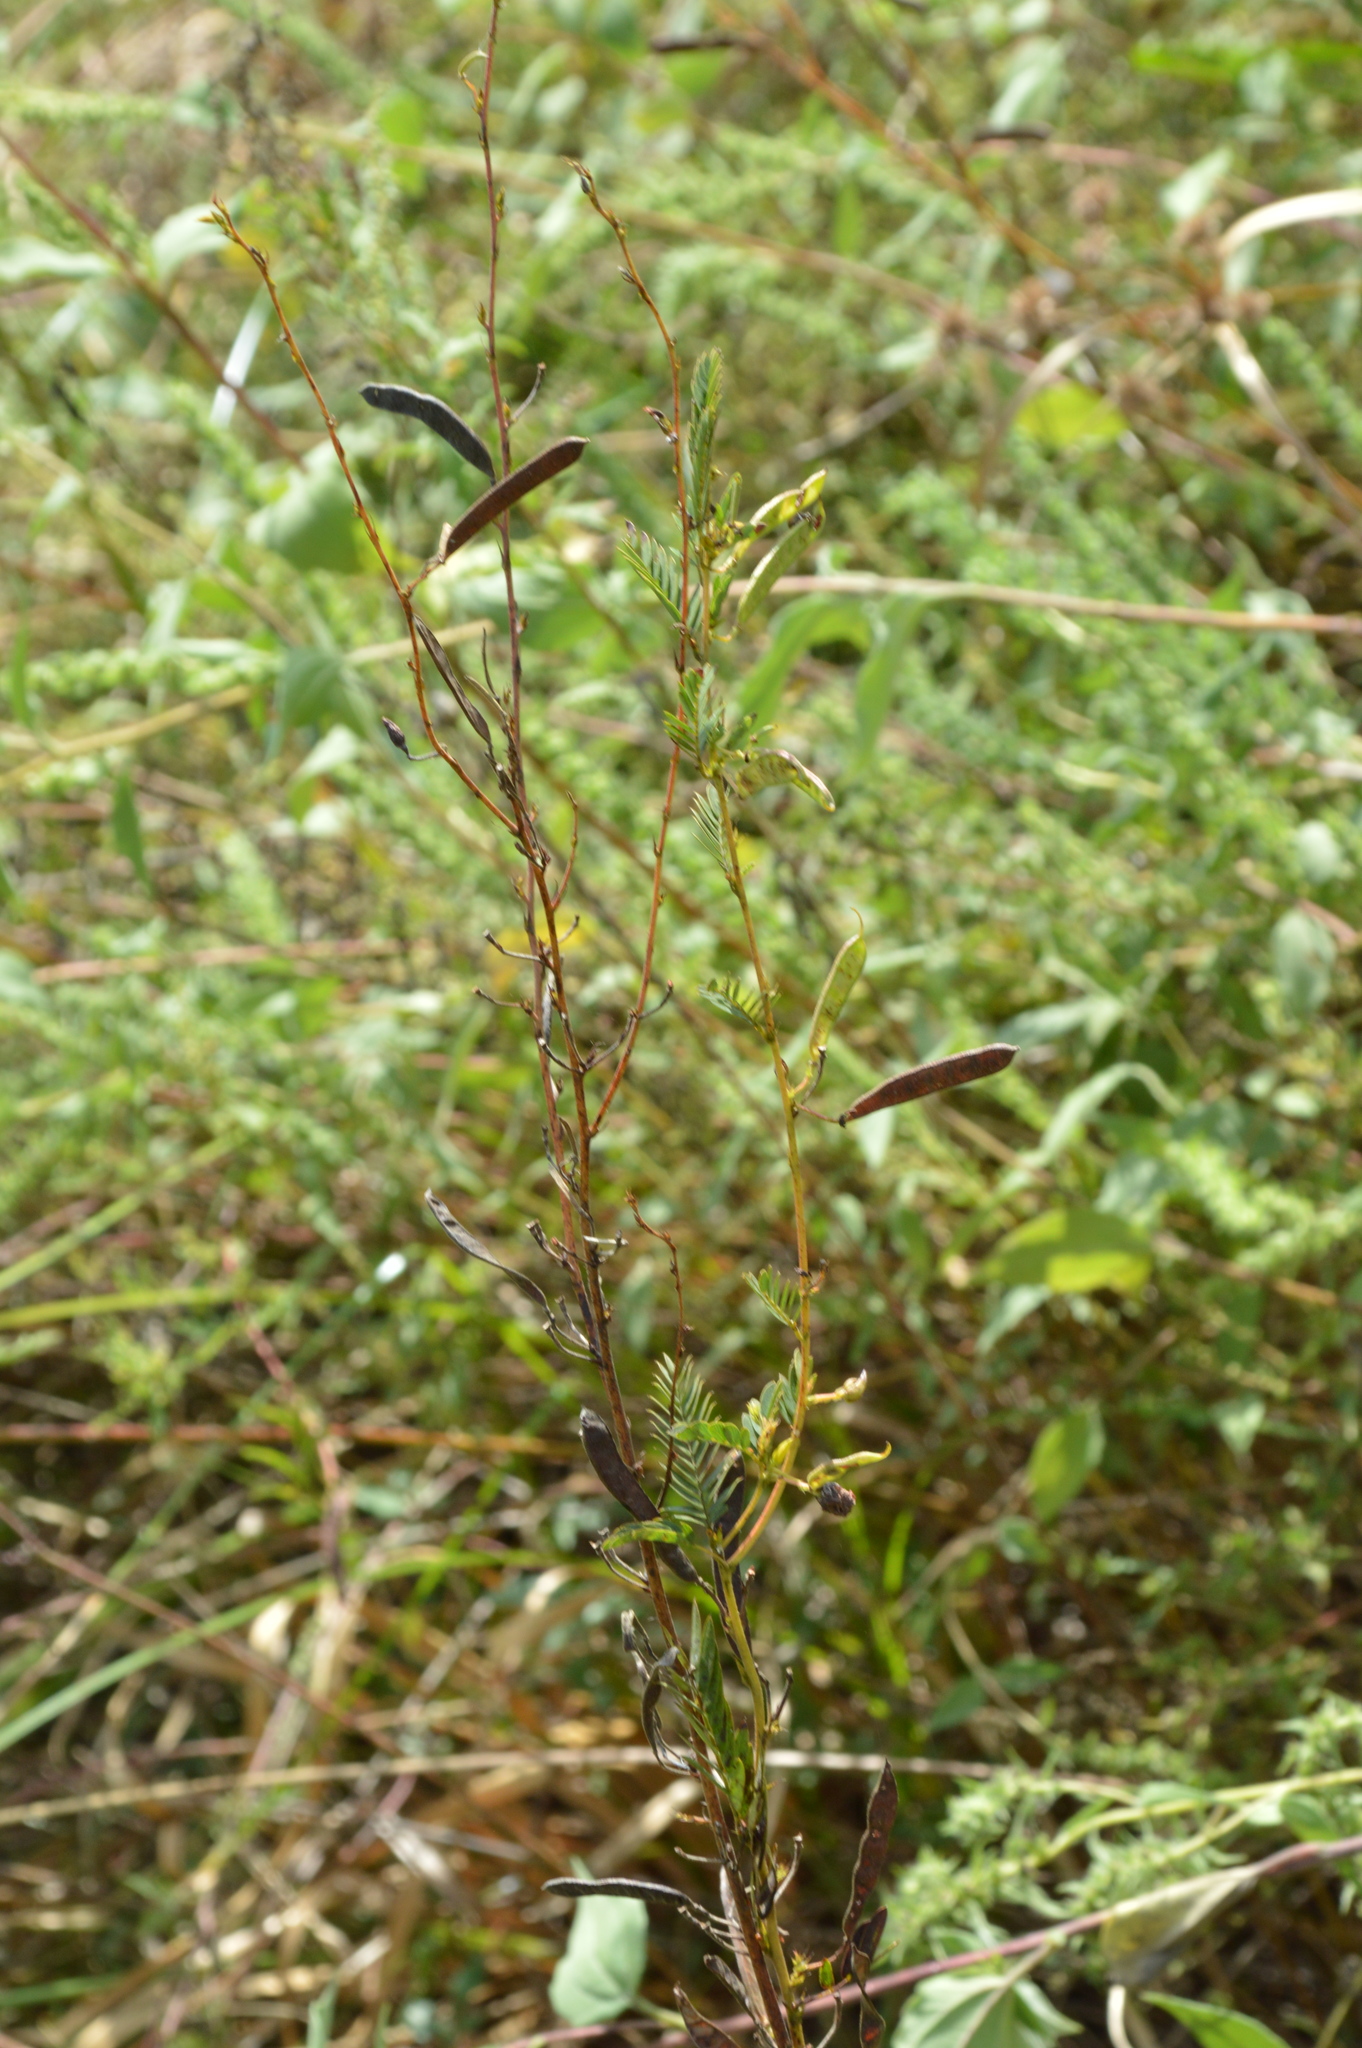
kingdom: Plantae
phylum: Tracheophyta
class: Magnoliopsida
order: Fabales
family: Fabaceae
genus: Chamaecrista
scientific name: Chamaecrista fasciculata
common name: Golden cassia
